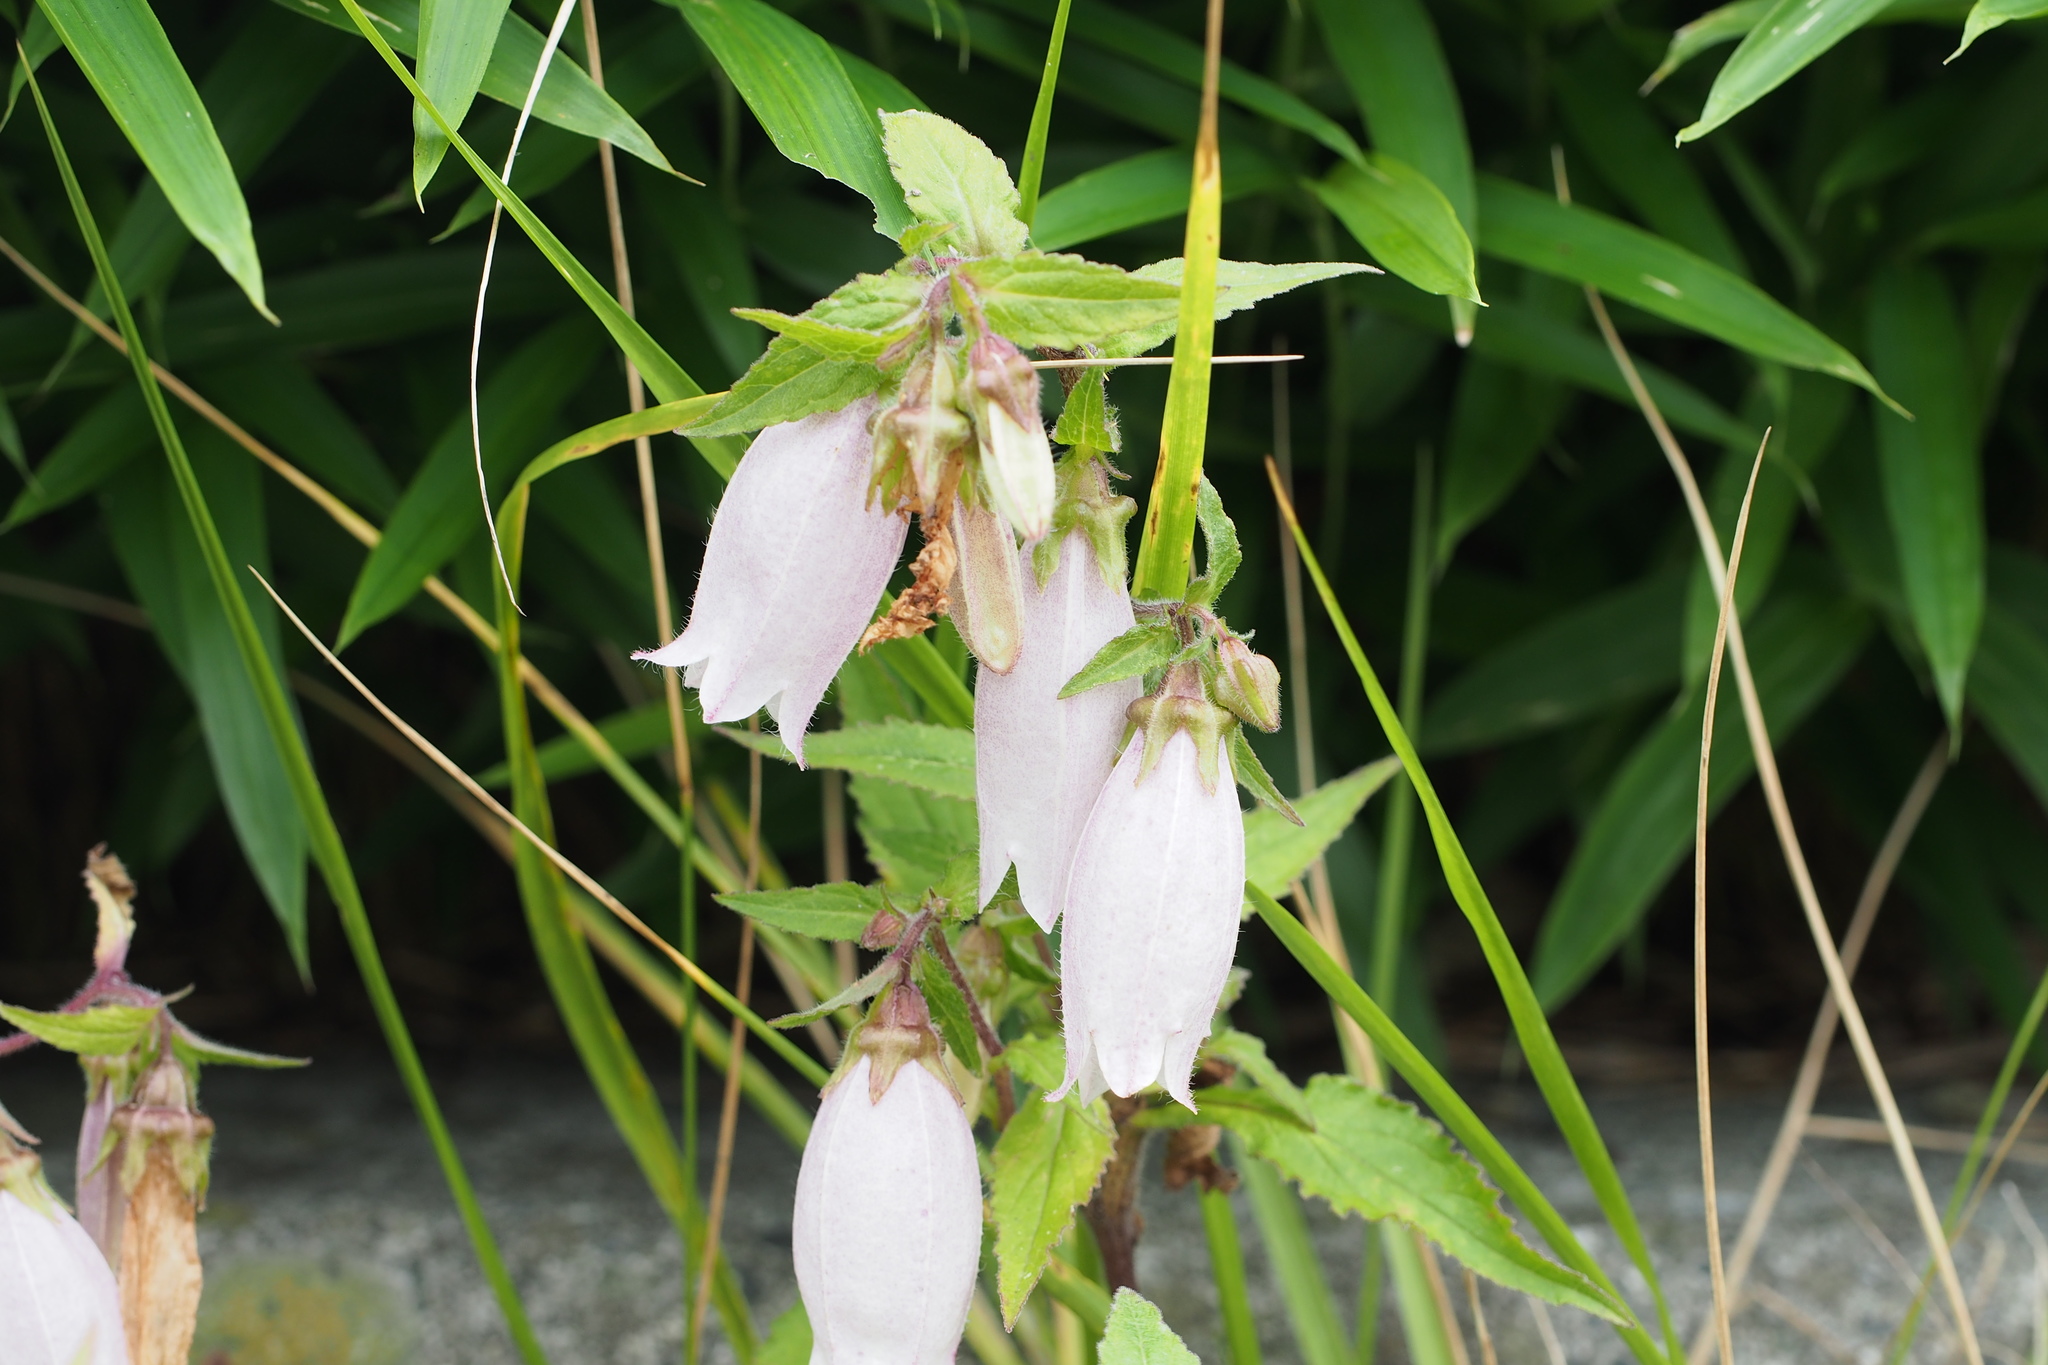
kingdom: Plantae
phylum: Tracheophyta
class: Magnoliopsida
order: Asterales
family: Campanulaceae
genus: Campanula
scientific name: Campanula punctata
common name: Spotted bellflower
